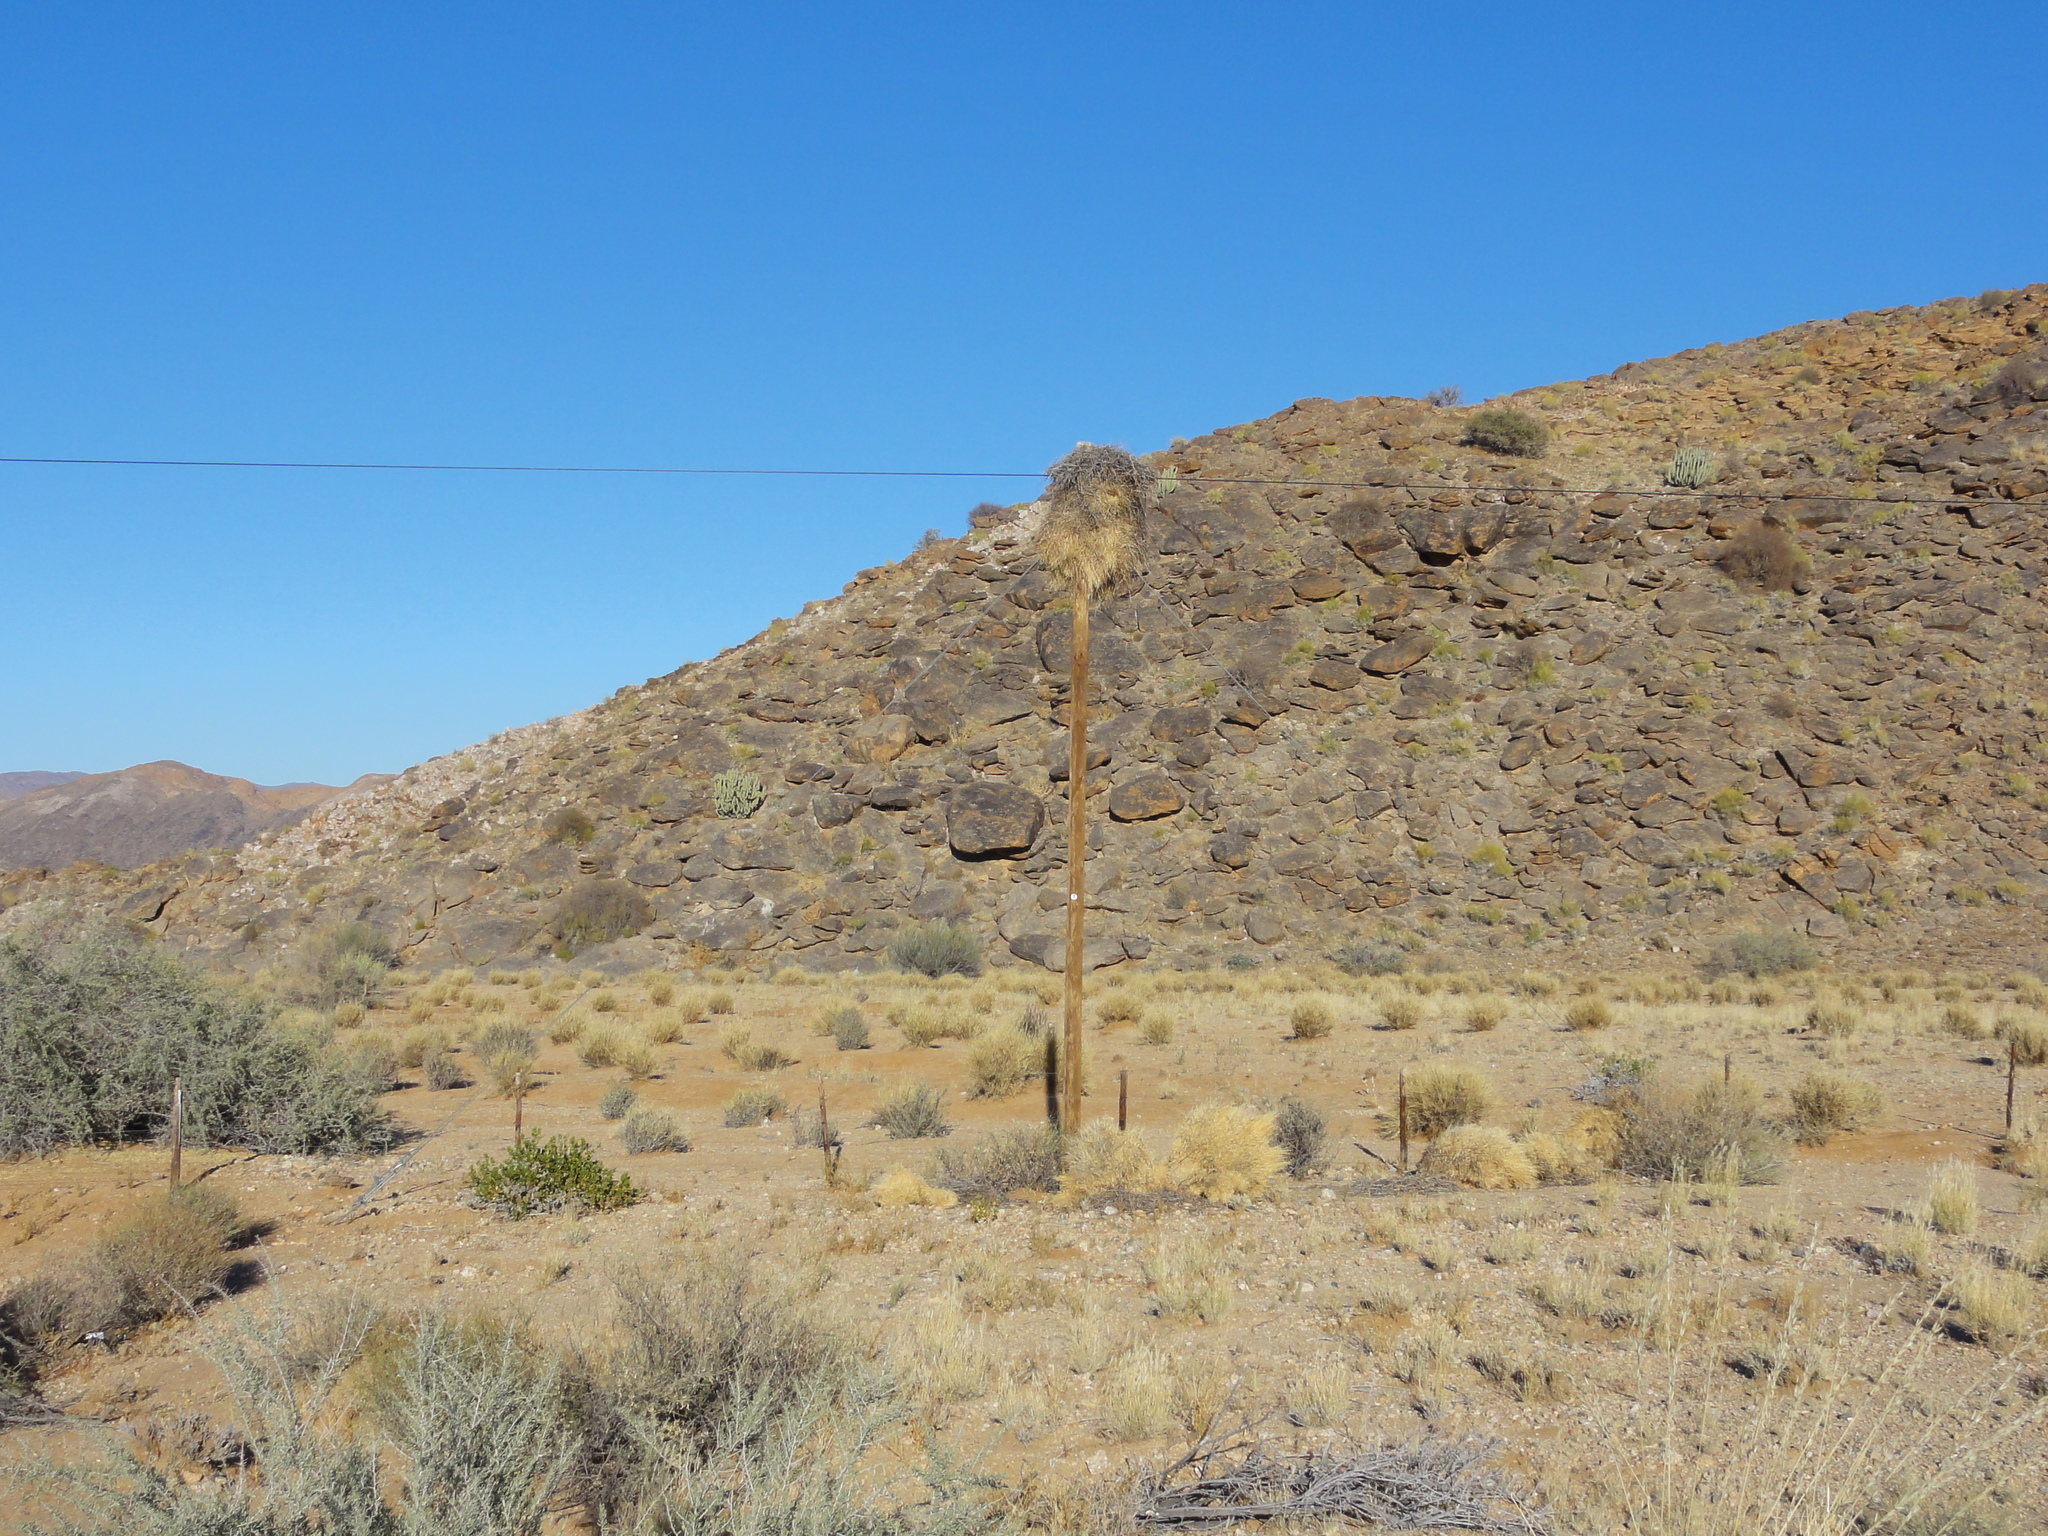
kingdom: Animalia
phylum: Chordata
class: Aves
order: Passeriformes
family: Passeridae
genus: Philetairus
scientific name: Philetairus socius
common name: Sociable weaver
